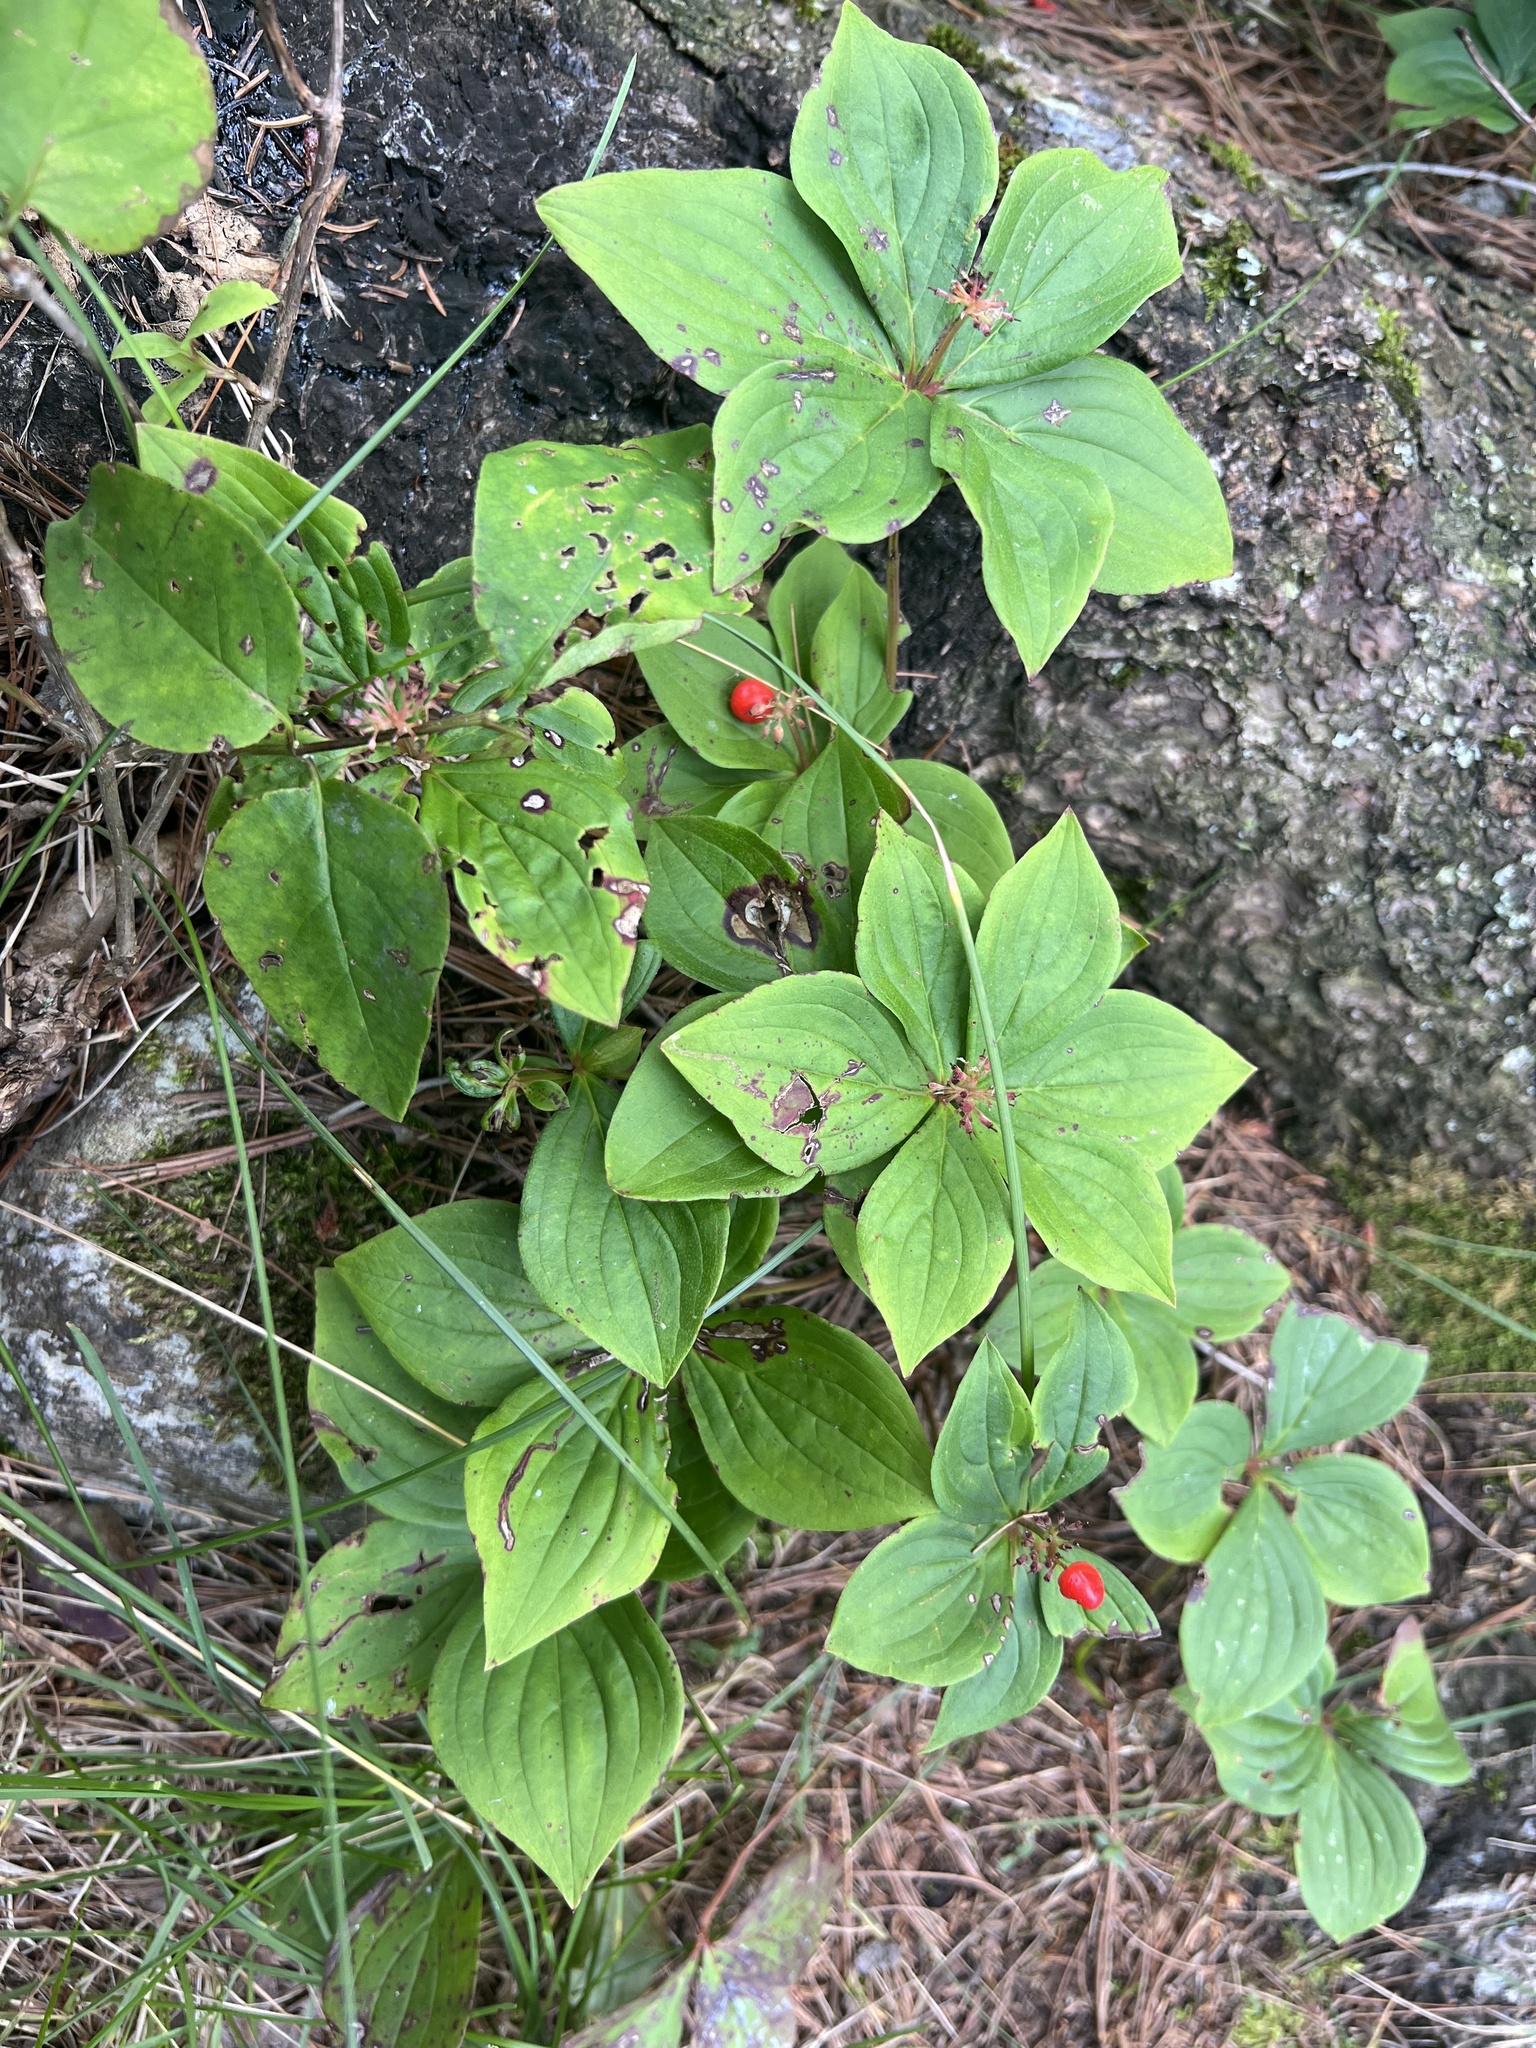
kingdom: Plantae
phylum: Tracheophyta
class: Magnoliopsida
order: Cornales
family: Cornaceae
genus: Cornus
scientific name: Cornus canadensis
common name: Creeping dogwood
